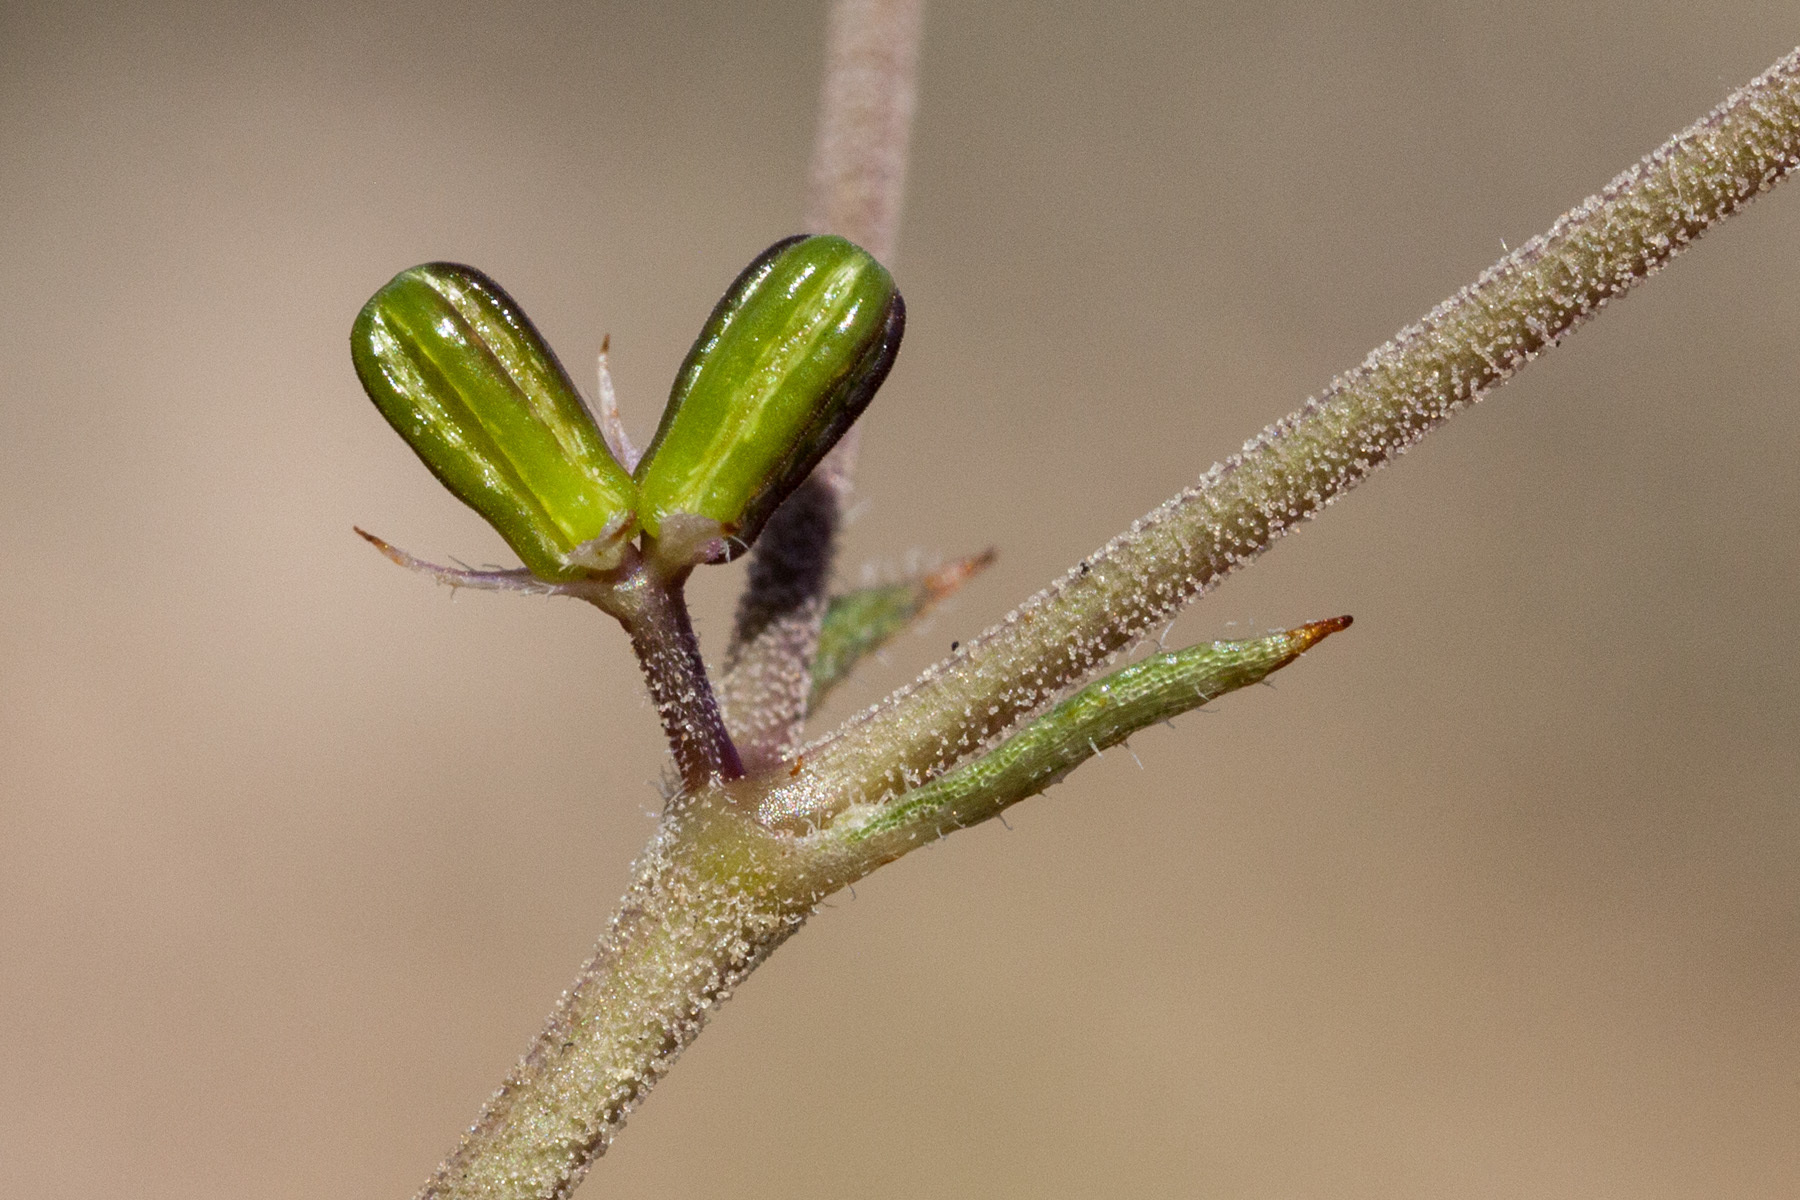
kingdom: Plantae
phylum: Tracheophyta
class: Magnoliopsida
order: Caryophyllales
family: Nyctaginaceae
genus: Boerhavia
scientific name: Boerhavia linearifolia
